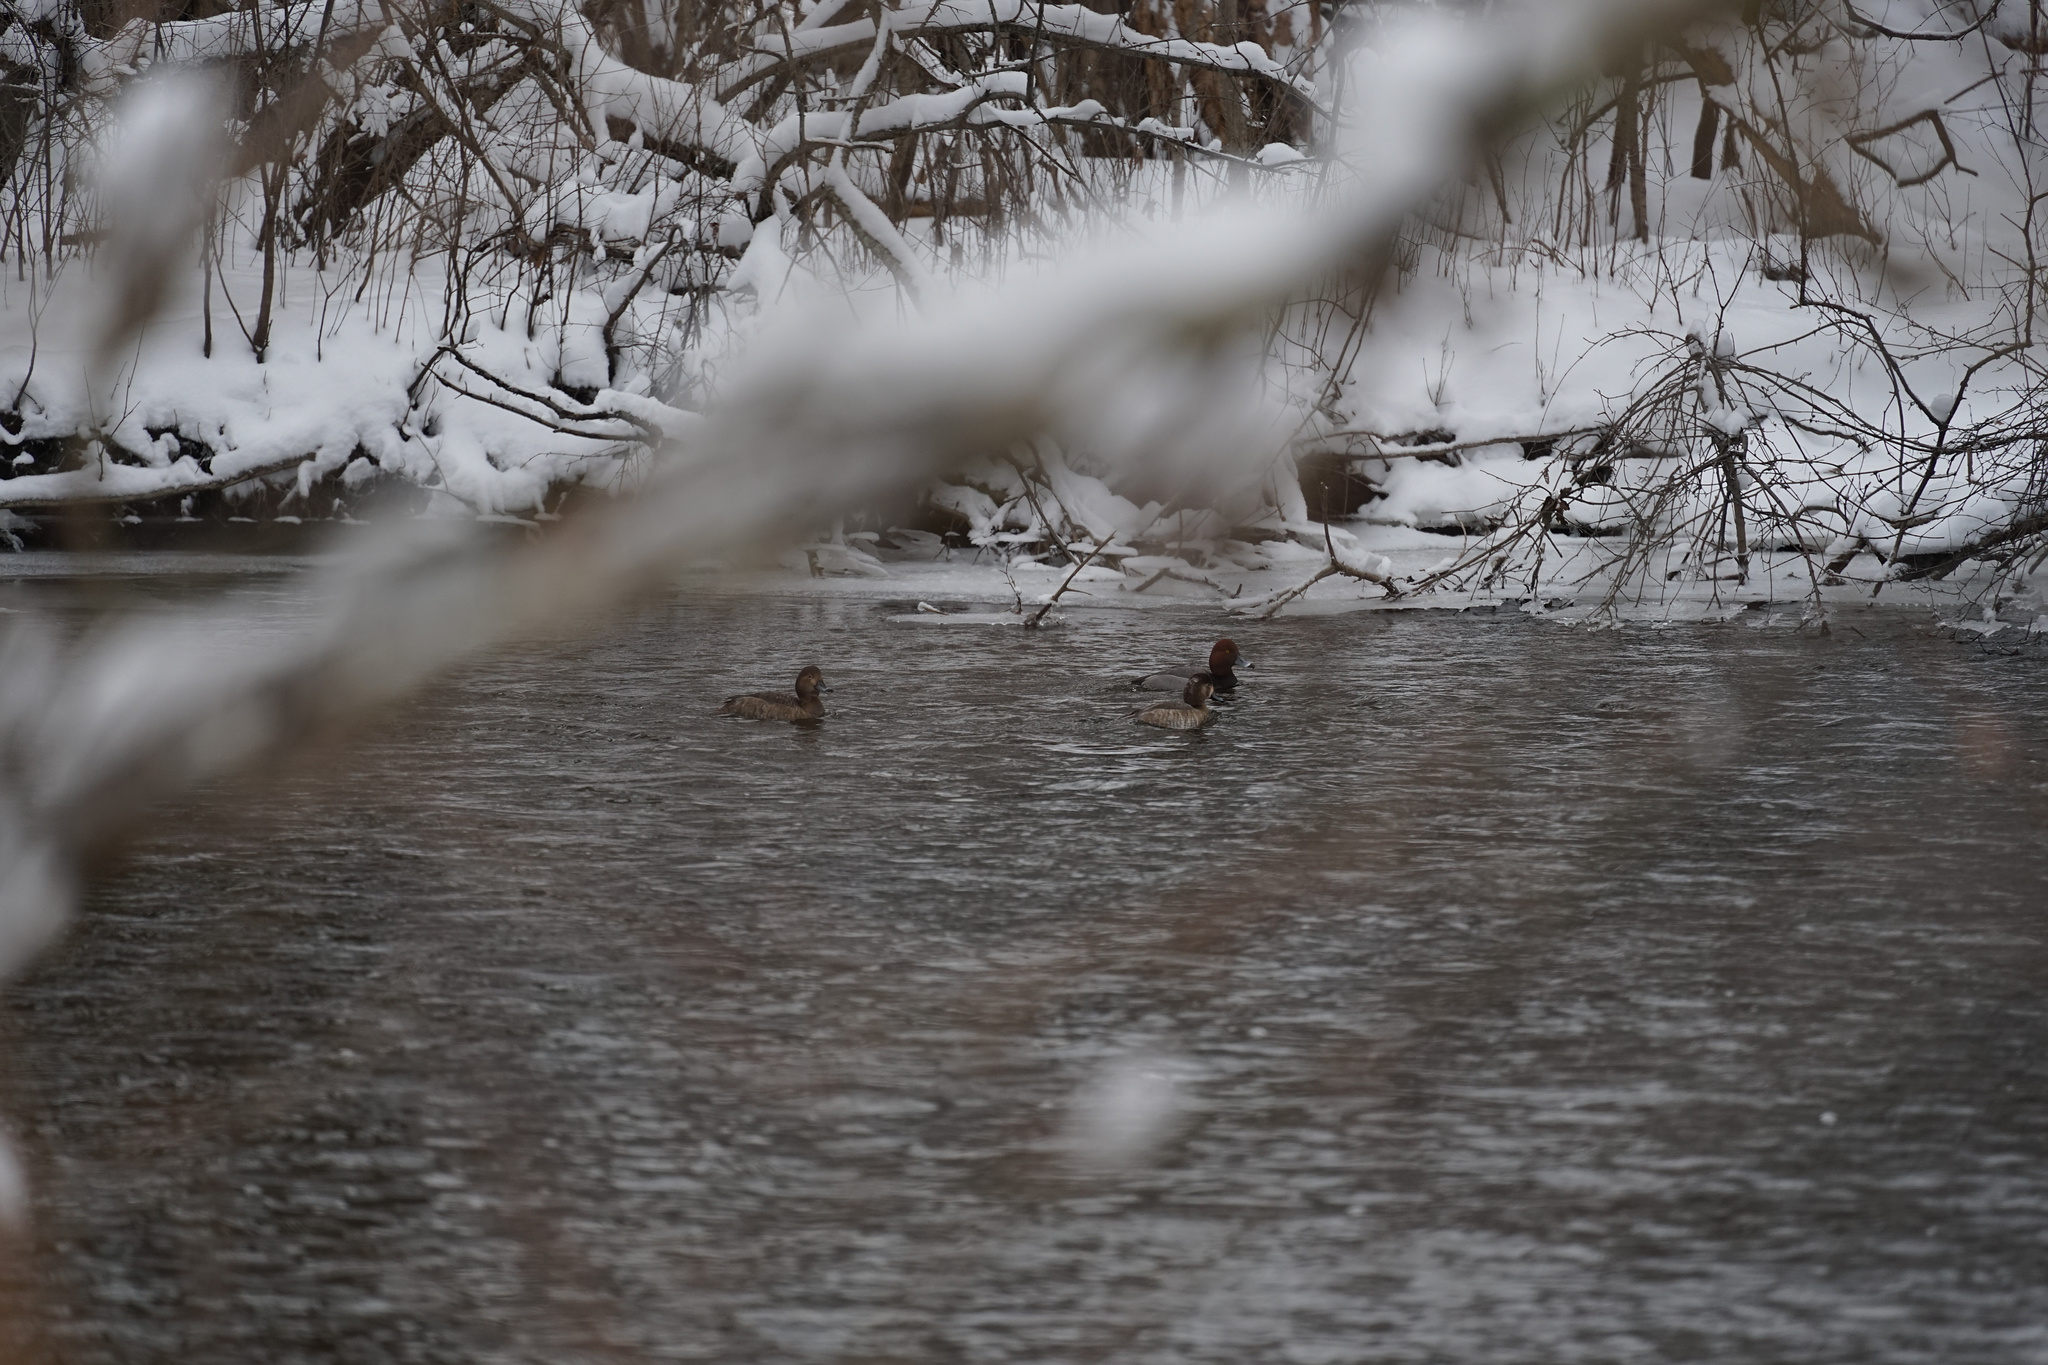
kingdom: Animalia
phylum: Chordata
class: Aves
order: Anseriformes
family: Anatidae
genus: Aythya
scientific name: Aythya americana
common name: Redhead
